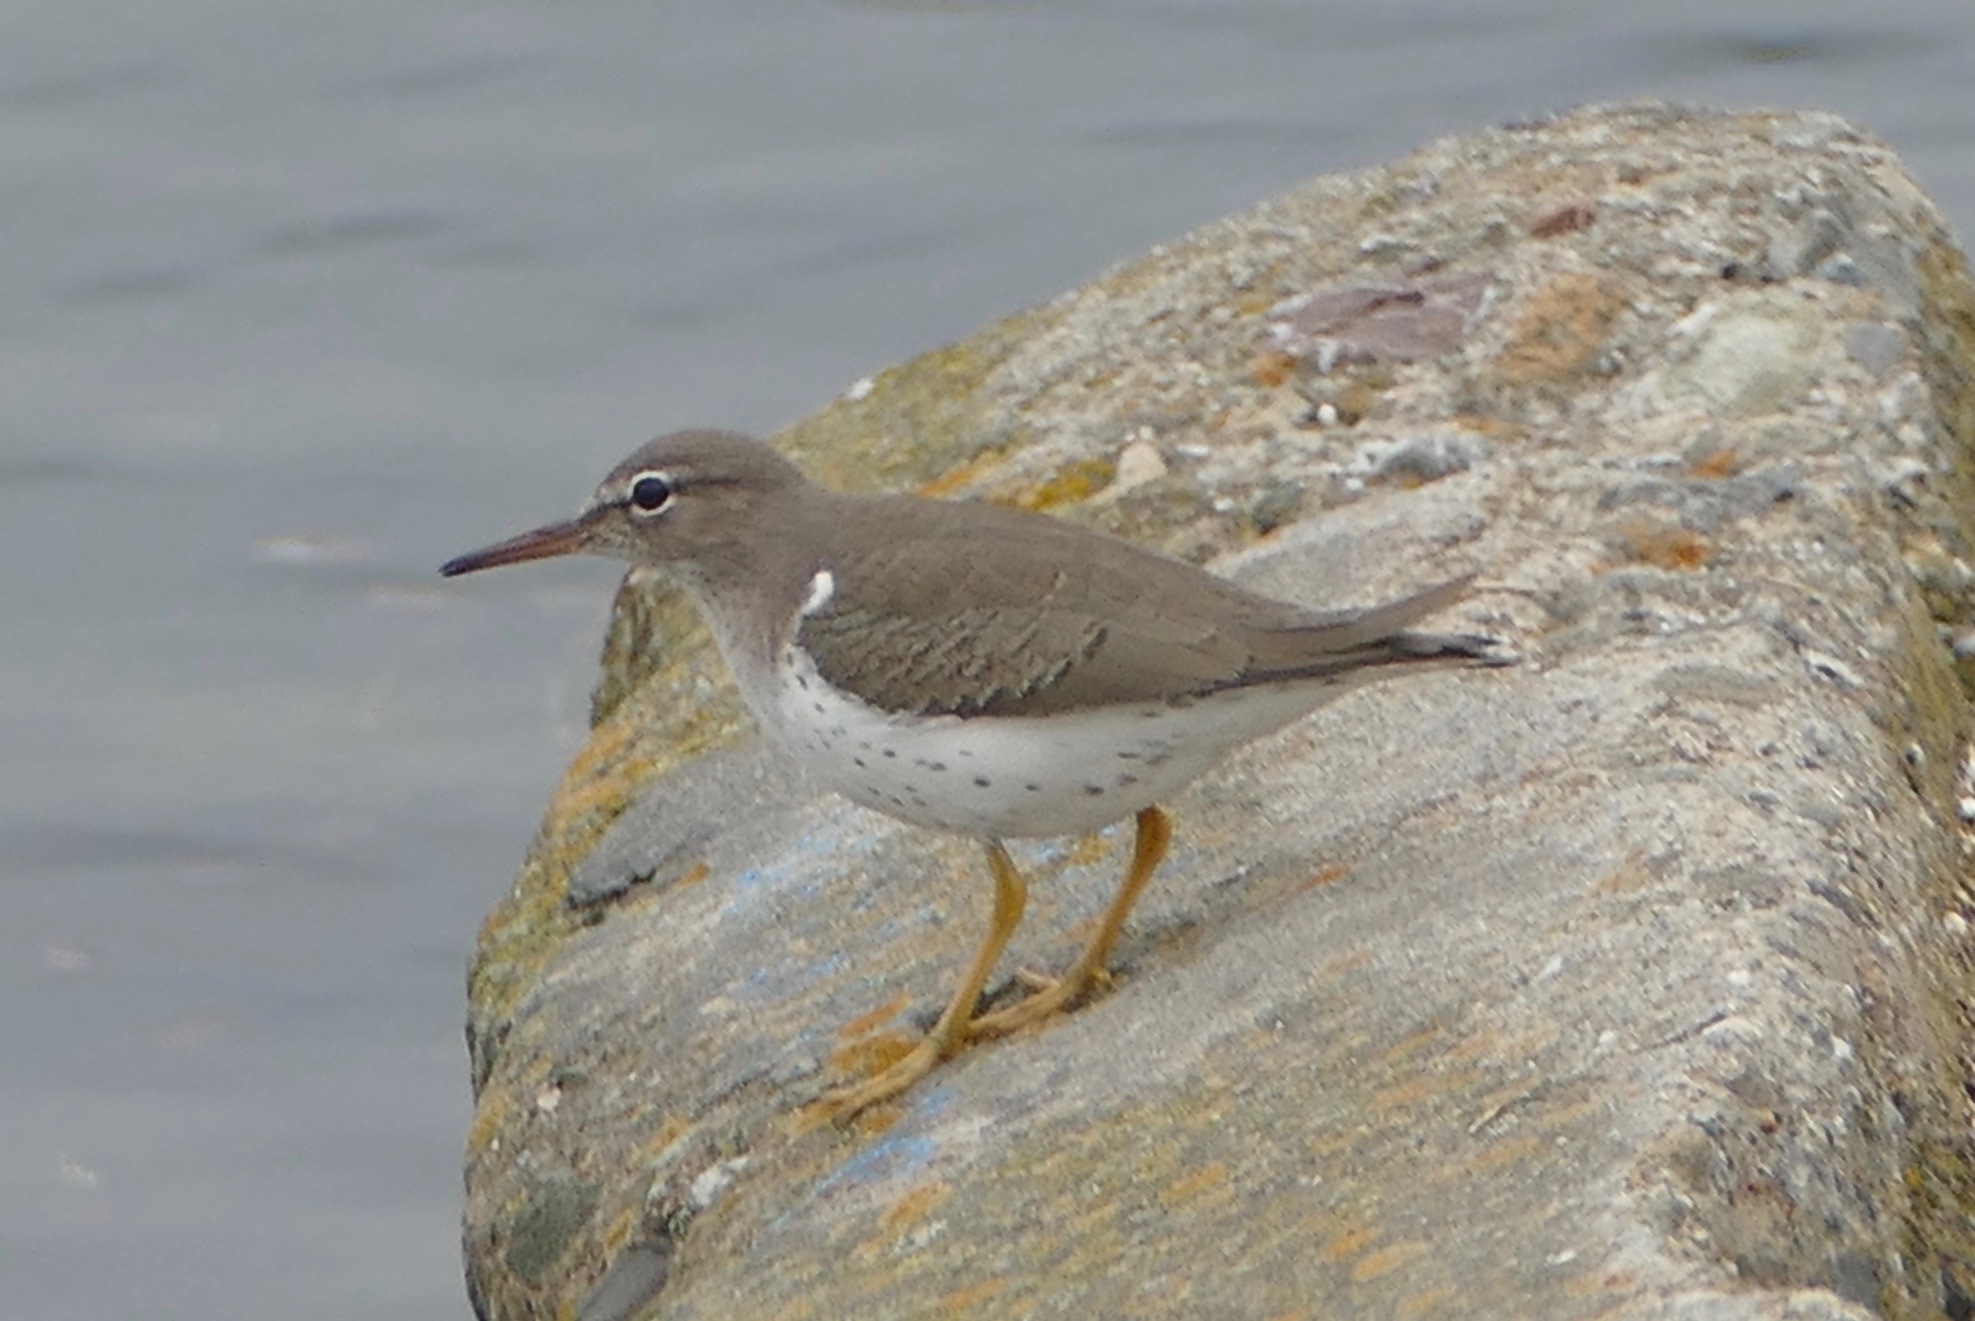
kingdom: Animalia
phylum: Chordata
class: Aves
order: Charadriiformes
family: Scolopacidae
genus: Actitis
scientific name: Actitis macularius
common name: Spotted sandpiper
